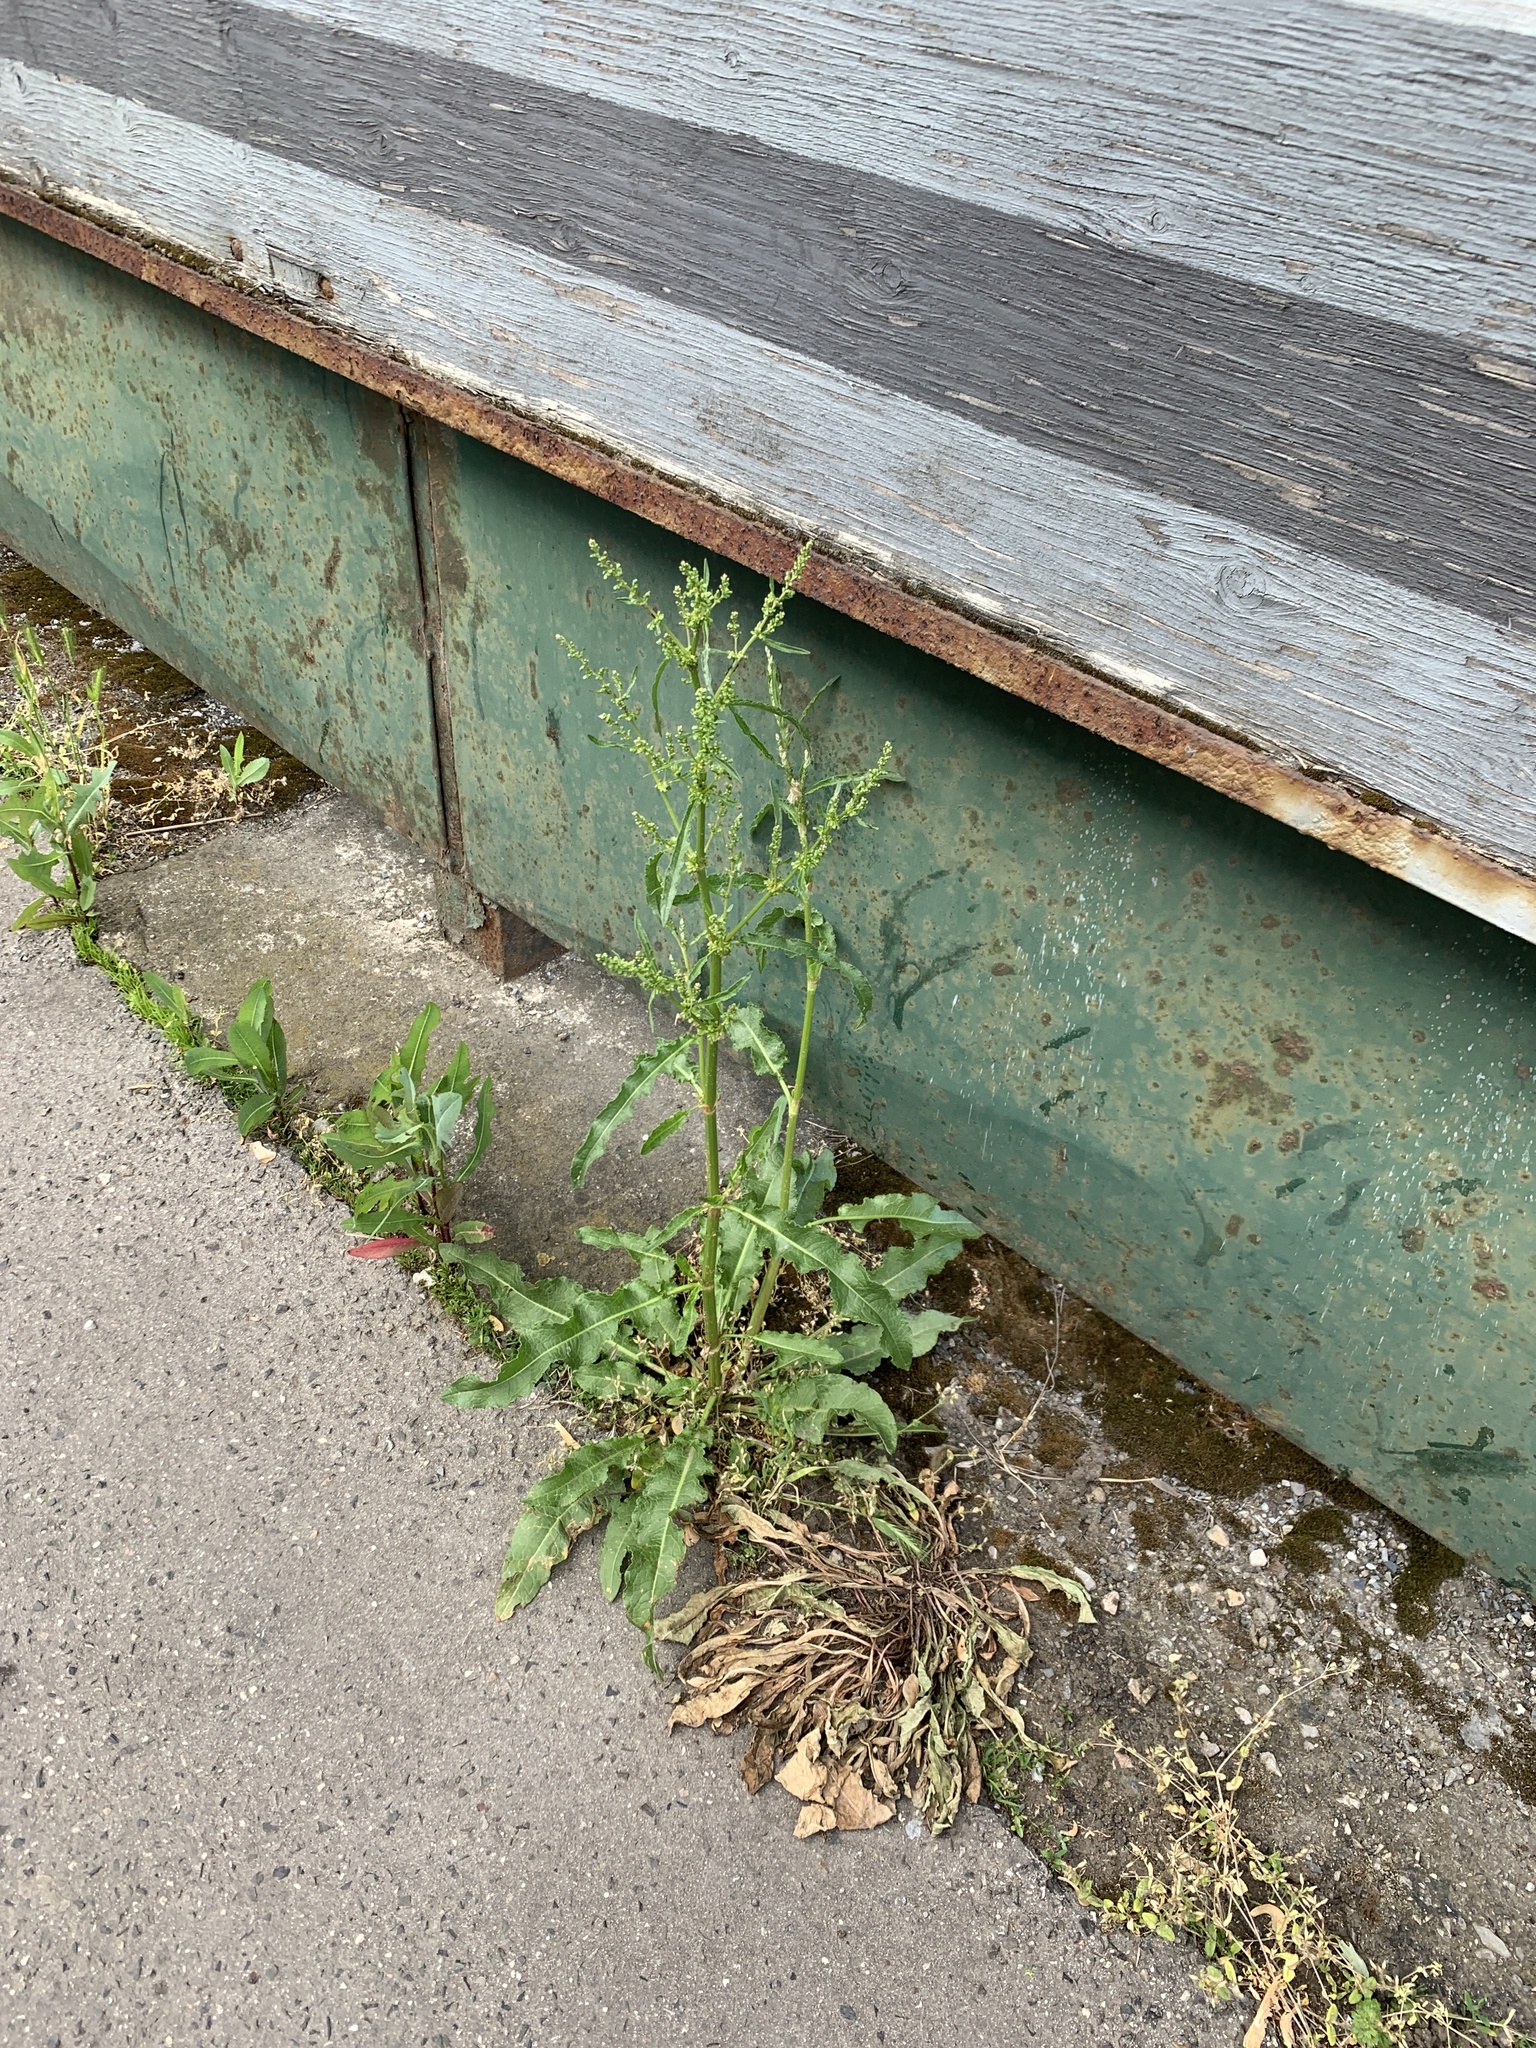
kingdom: Plantae
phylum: Tracheophyta
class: Magnoliopsida
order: Caryophyllales
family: Polygonaceae
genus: Rumex
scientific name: Rumex crispus
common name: Curled dock
